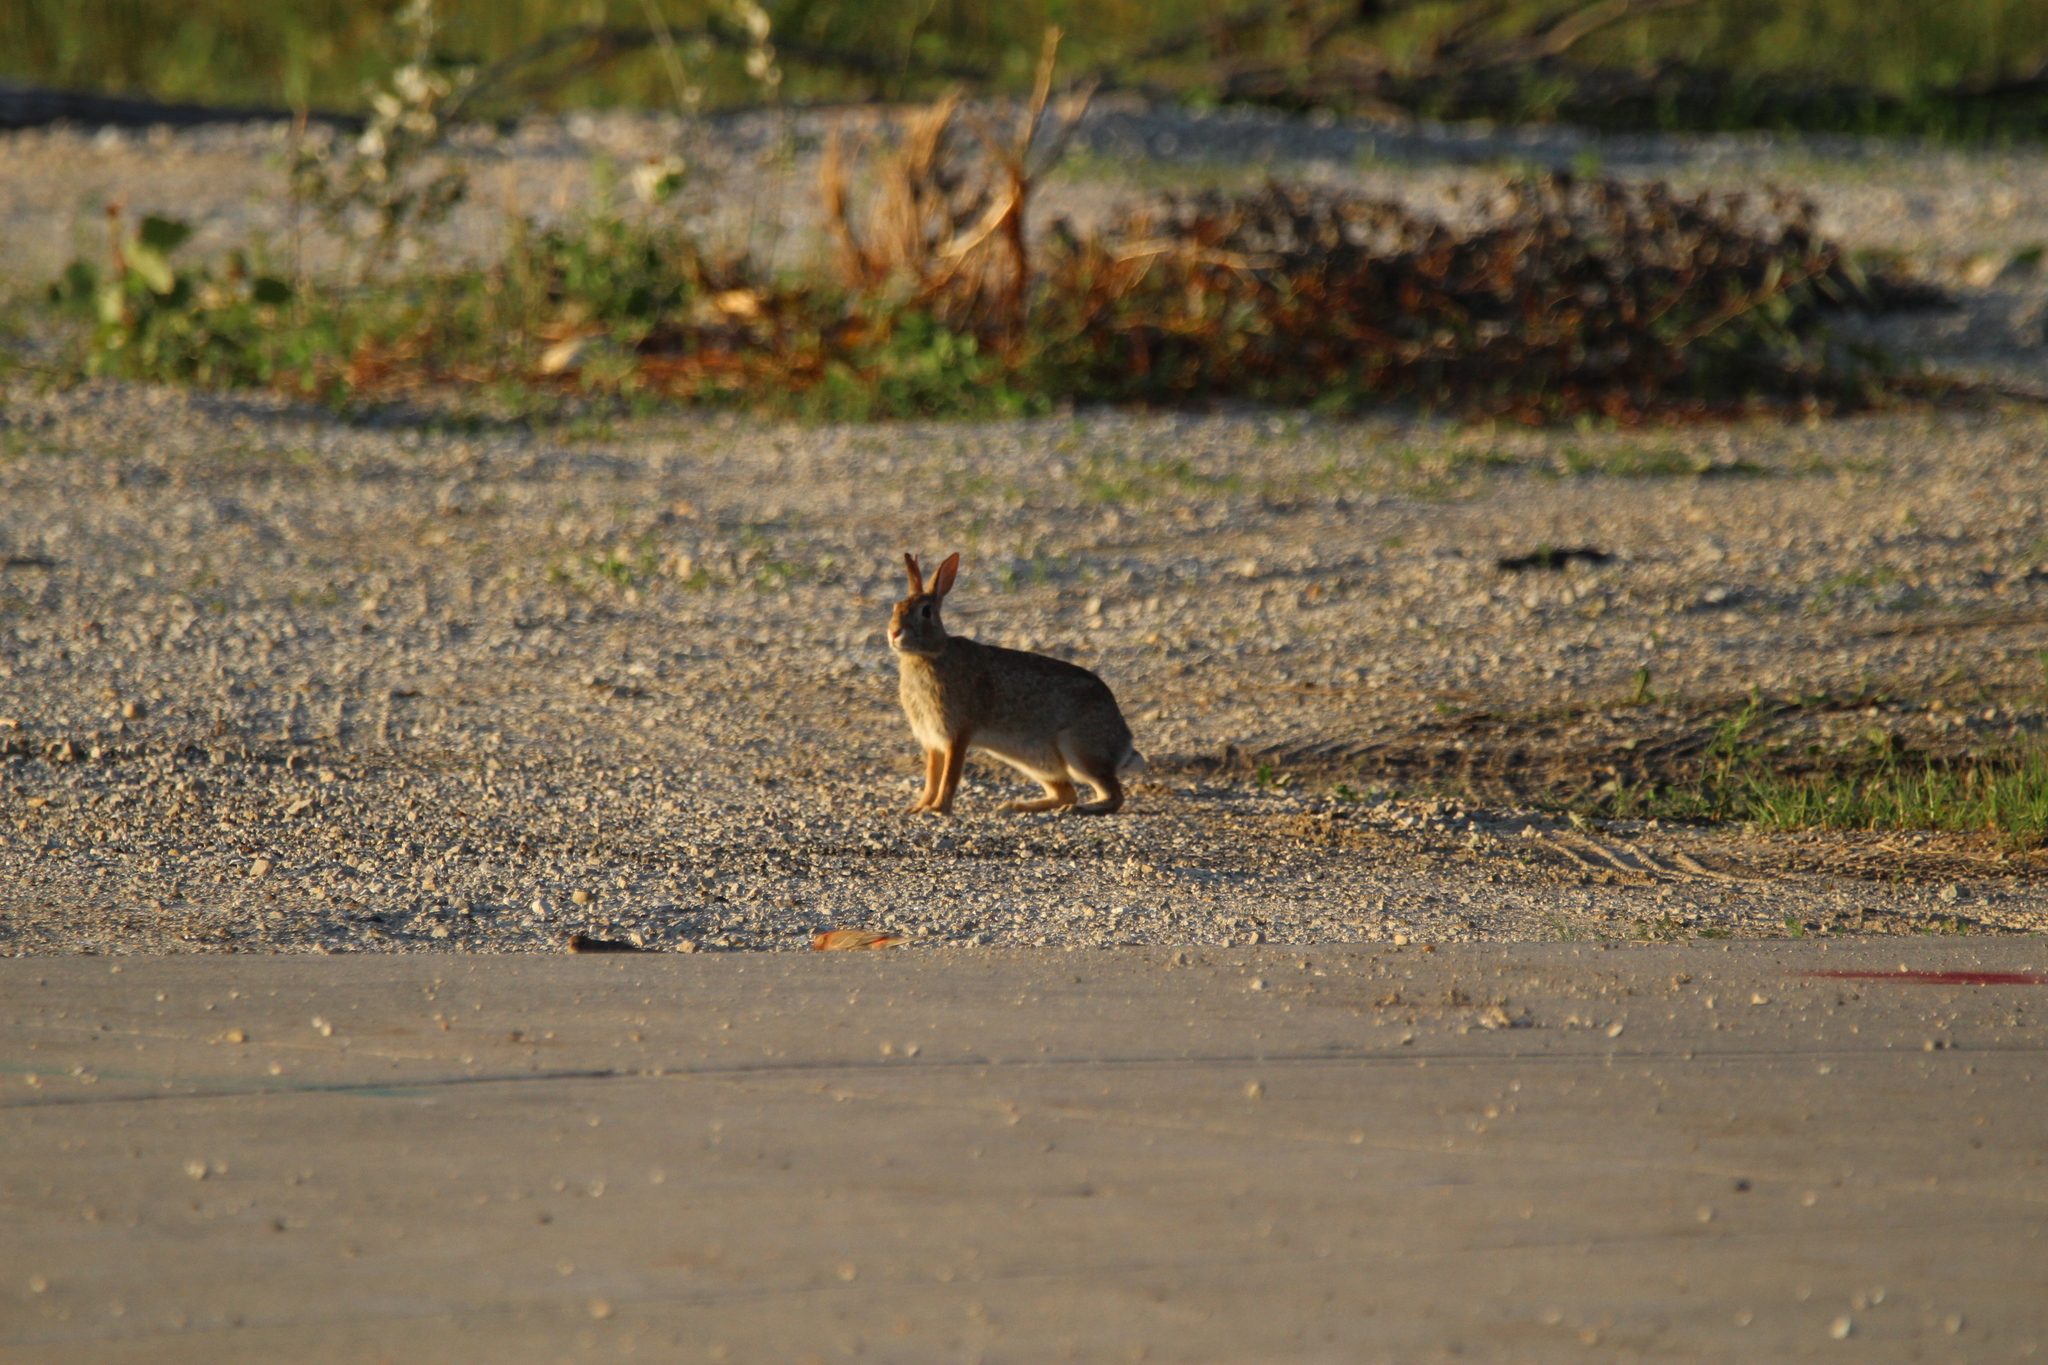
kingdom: Animalia
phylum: Chordata
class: Mammalia
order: Lagomorpha
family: Leporidae
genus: Sylvilagus
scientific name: Sylvilagus floridanus
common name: Eastern cottontail
